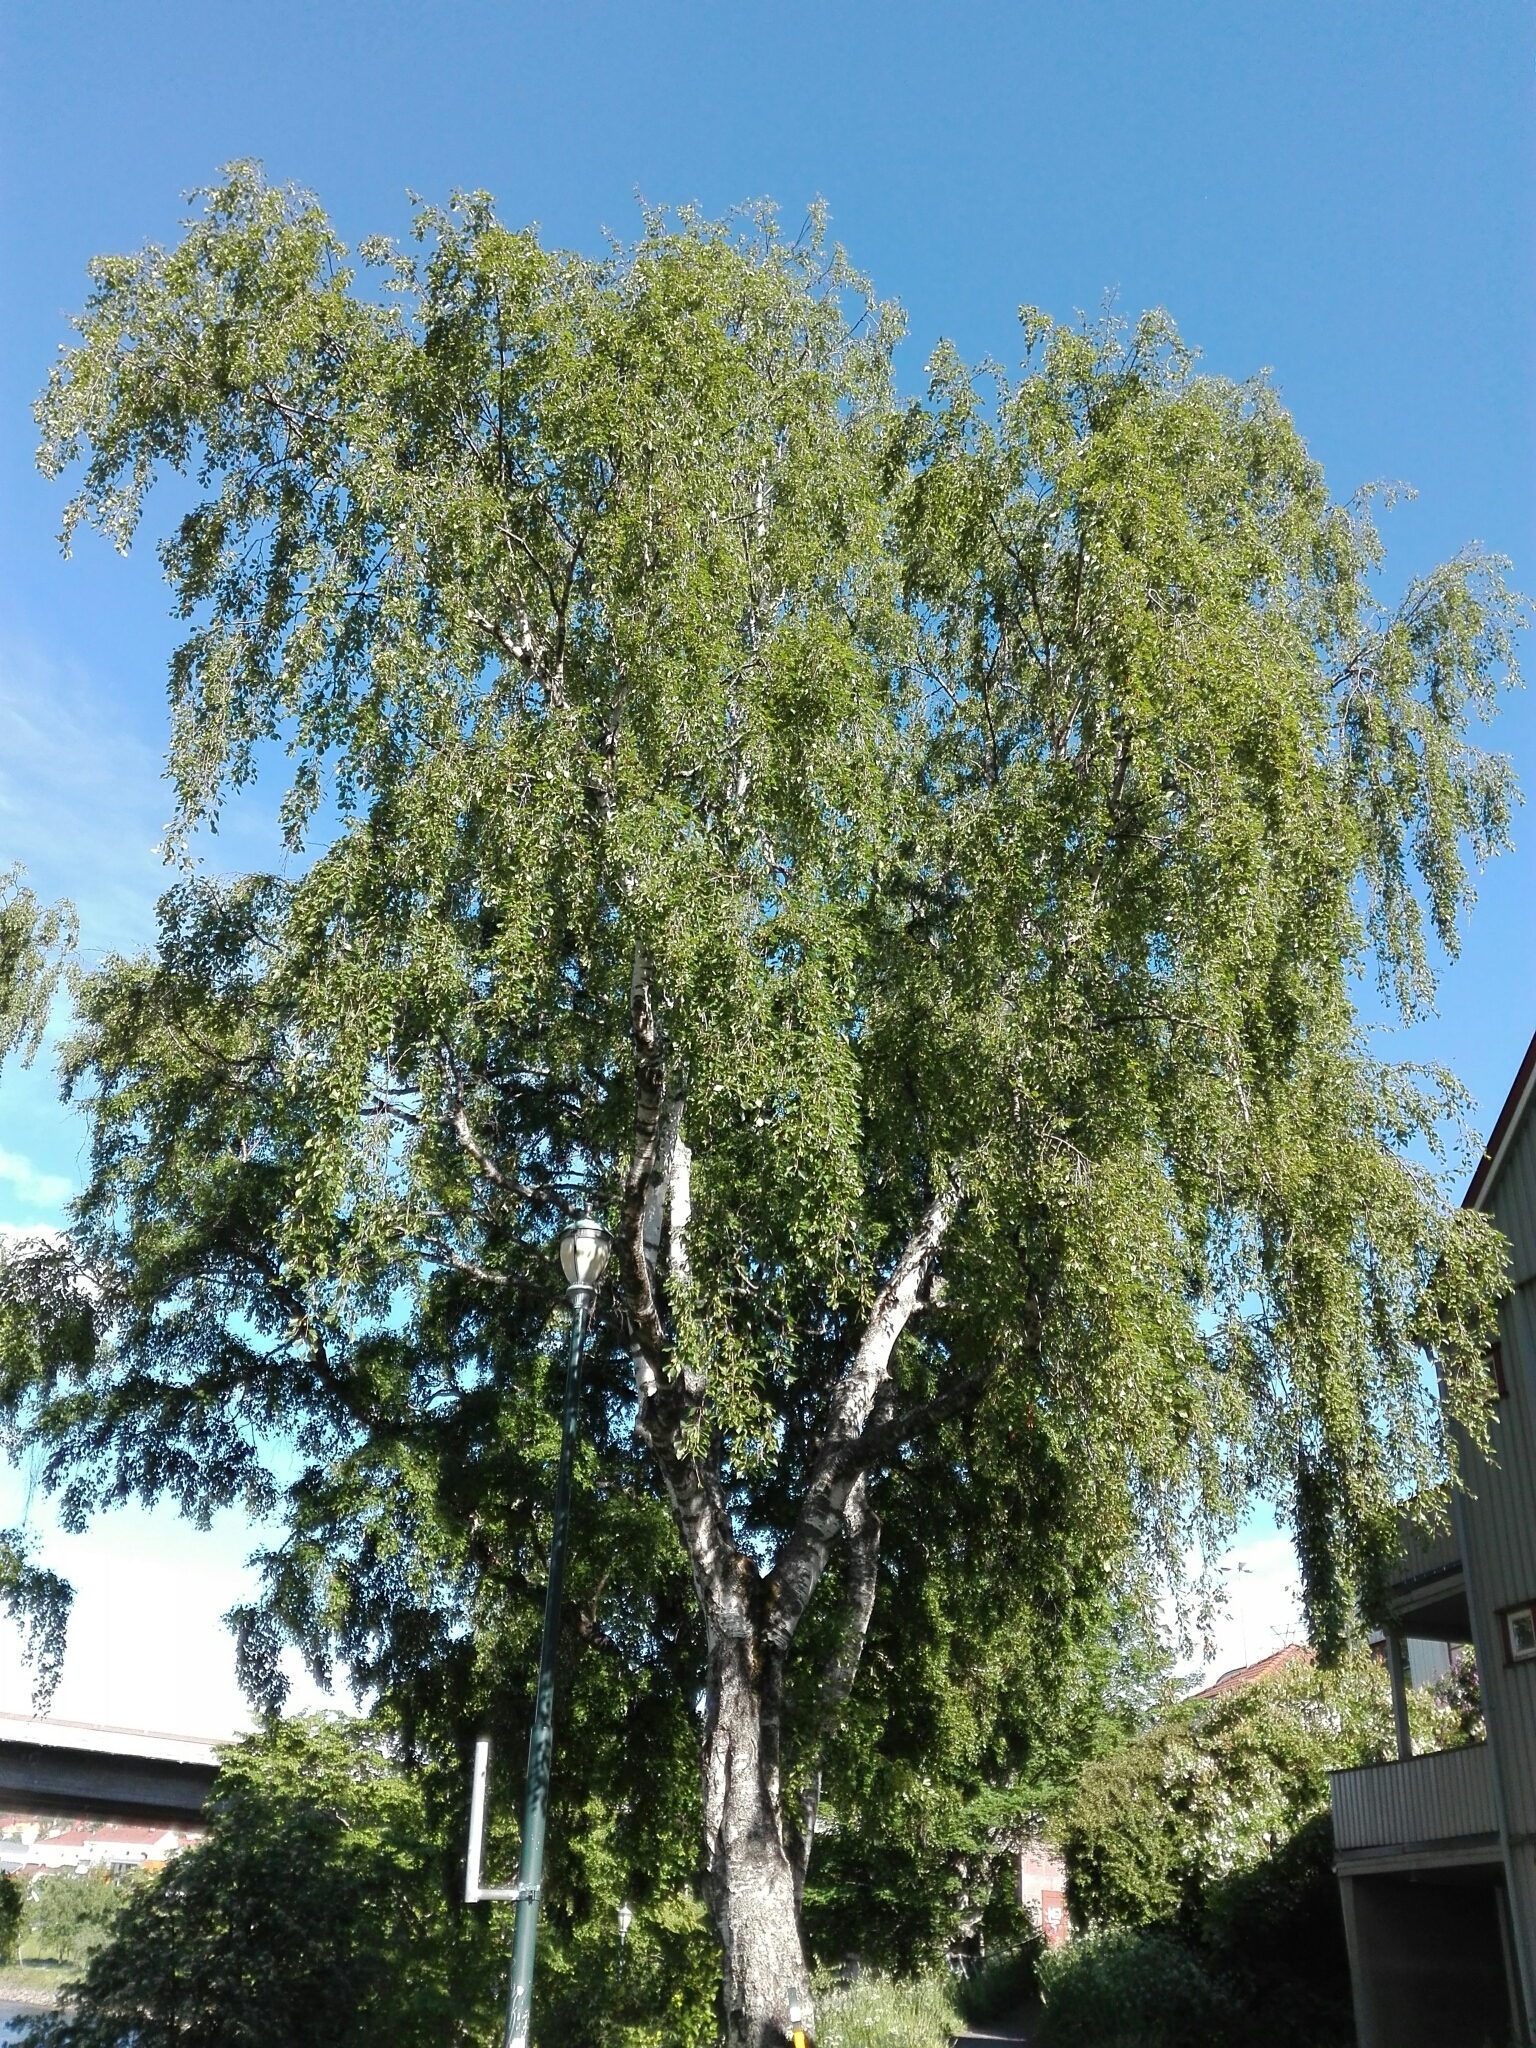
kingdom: Plantae
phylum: Tracheophyta
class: Magnoliopsida
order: Fagales
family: Betulaceae
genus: Betula
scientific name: Betula pendula
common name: Silver birch
